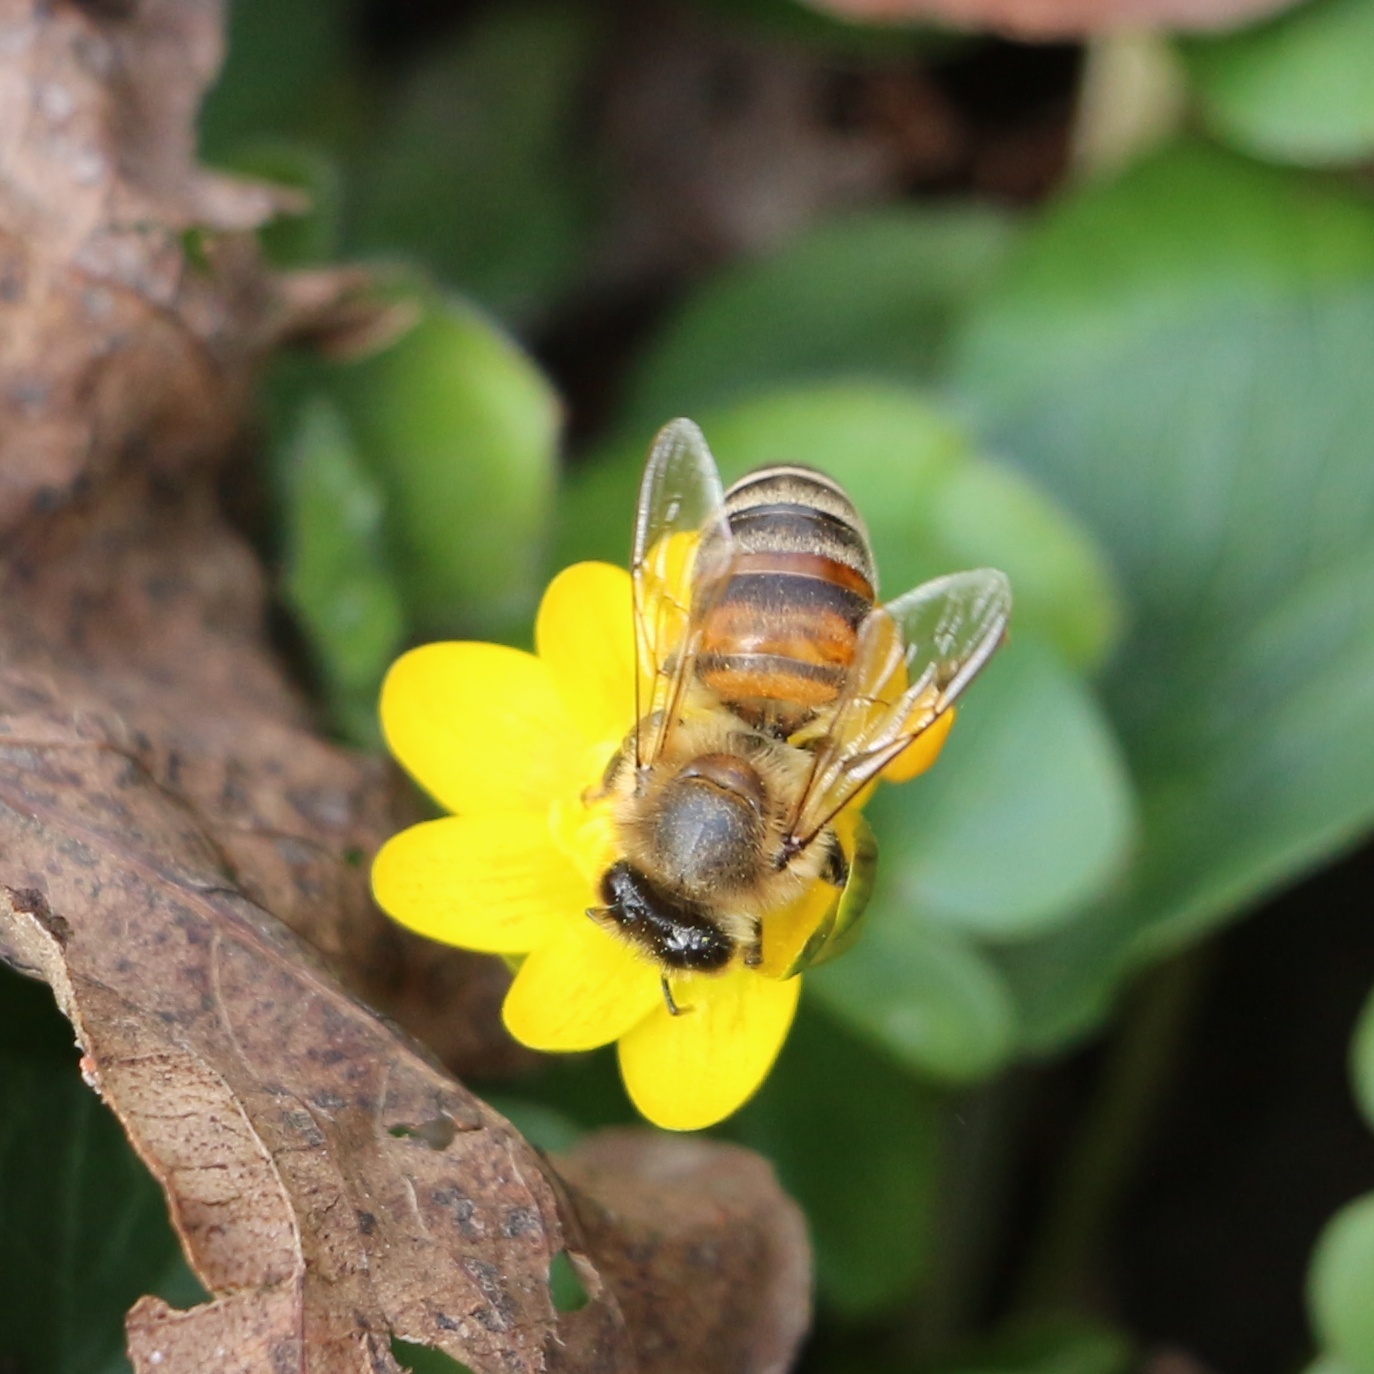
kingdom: Animalia
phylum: Arthropoda
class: Insecta
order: Hymenoptera
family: Apidae
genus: Apis
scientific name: Apis mellifera
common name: Honey bee
